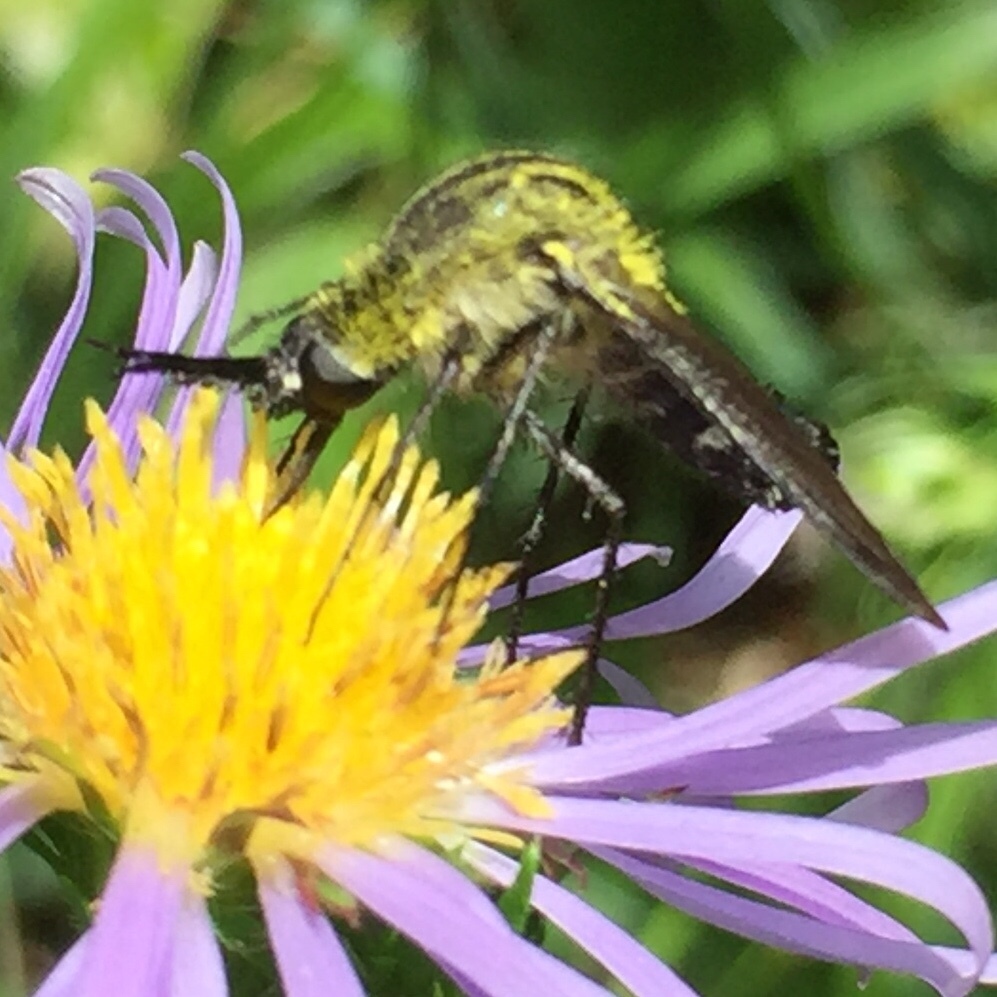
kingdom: Animalia
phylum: Arthropoda
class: Insecta
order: Diptera
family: Bombyliidae
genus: Lepidophora
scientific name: Lepidophora lutea
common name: Hunchback bee fly
